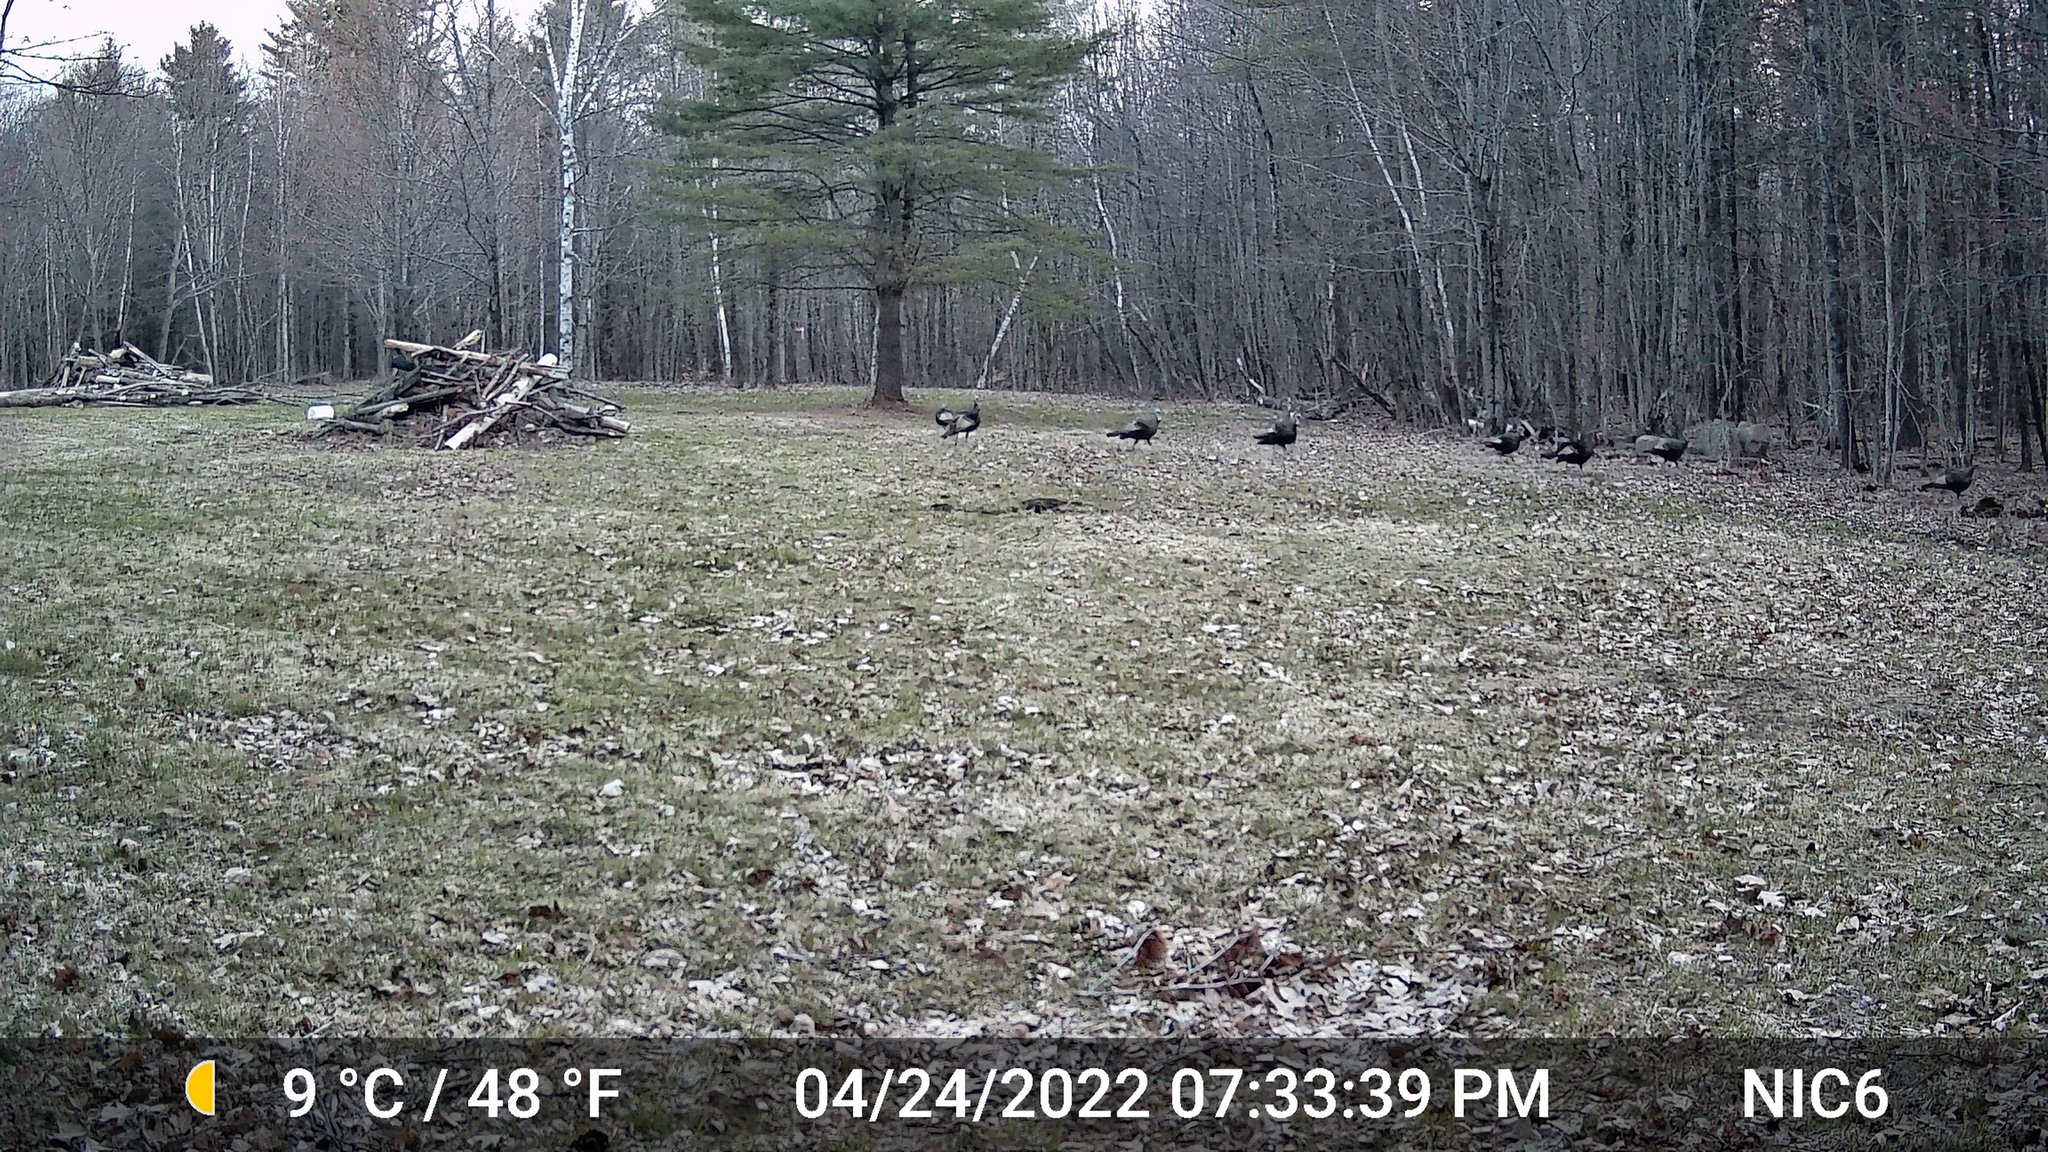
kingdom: Animalia
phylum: Chordata
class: Aves
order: Galliformes
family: Phasianidae
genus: Meleagris
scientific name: Meleagris gallopavo
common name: Wild turkey
